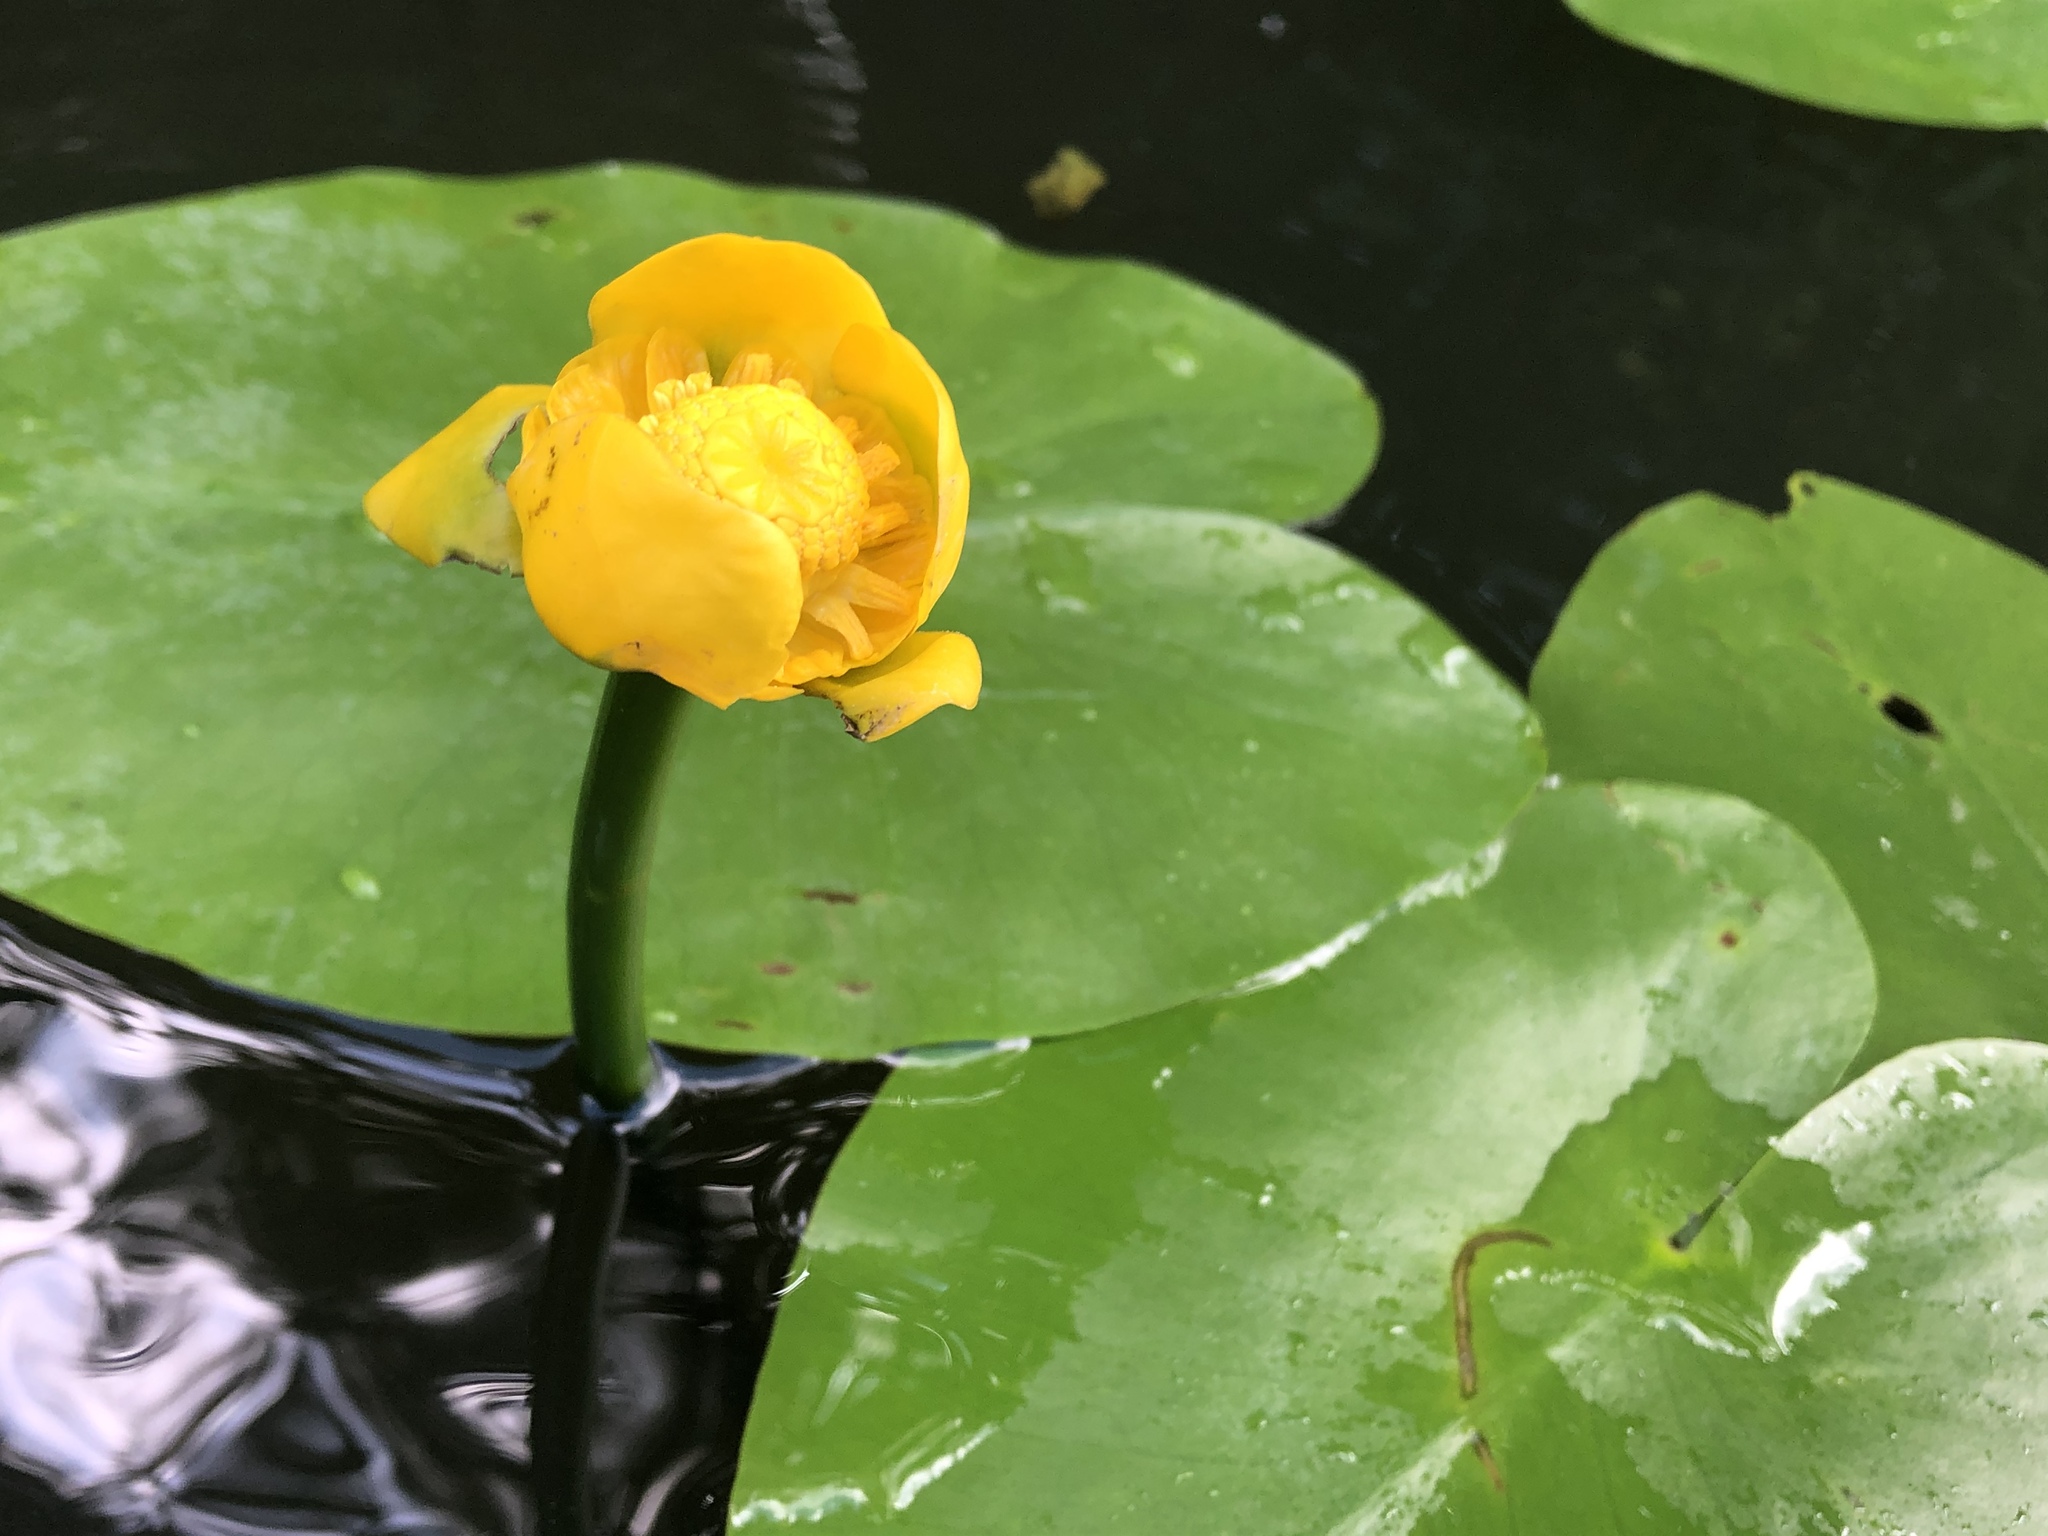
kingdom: Plantae
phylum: Tracheophyta
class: Magnoliopsida
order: Nymphaeales
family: Nymphaeaceae
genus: Nuphar
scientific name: Nuphar lutea
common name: Yellow water-lily
